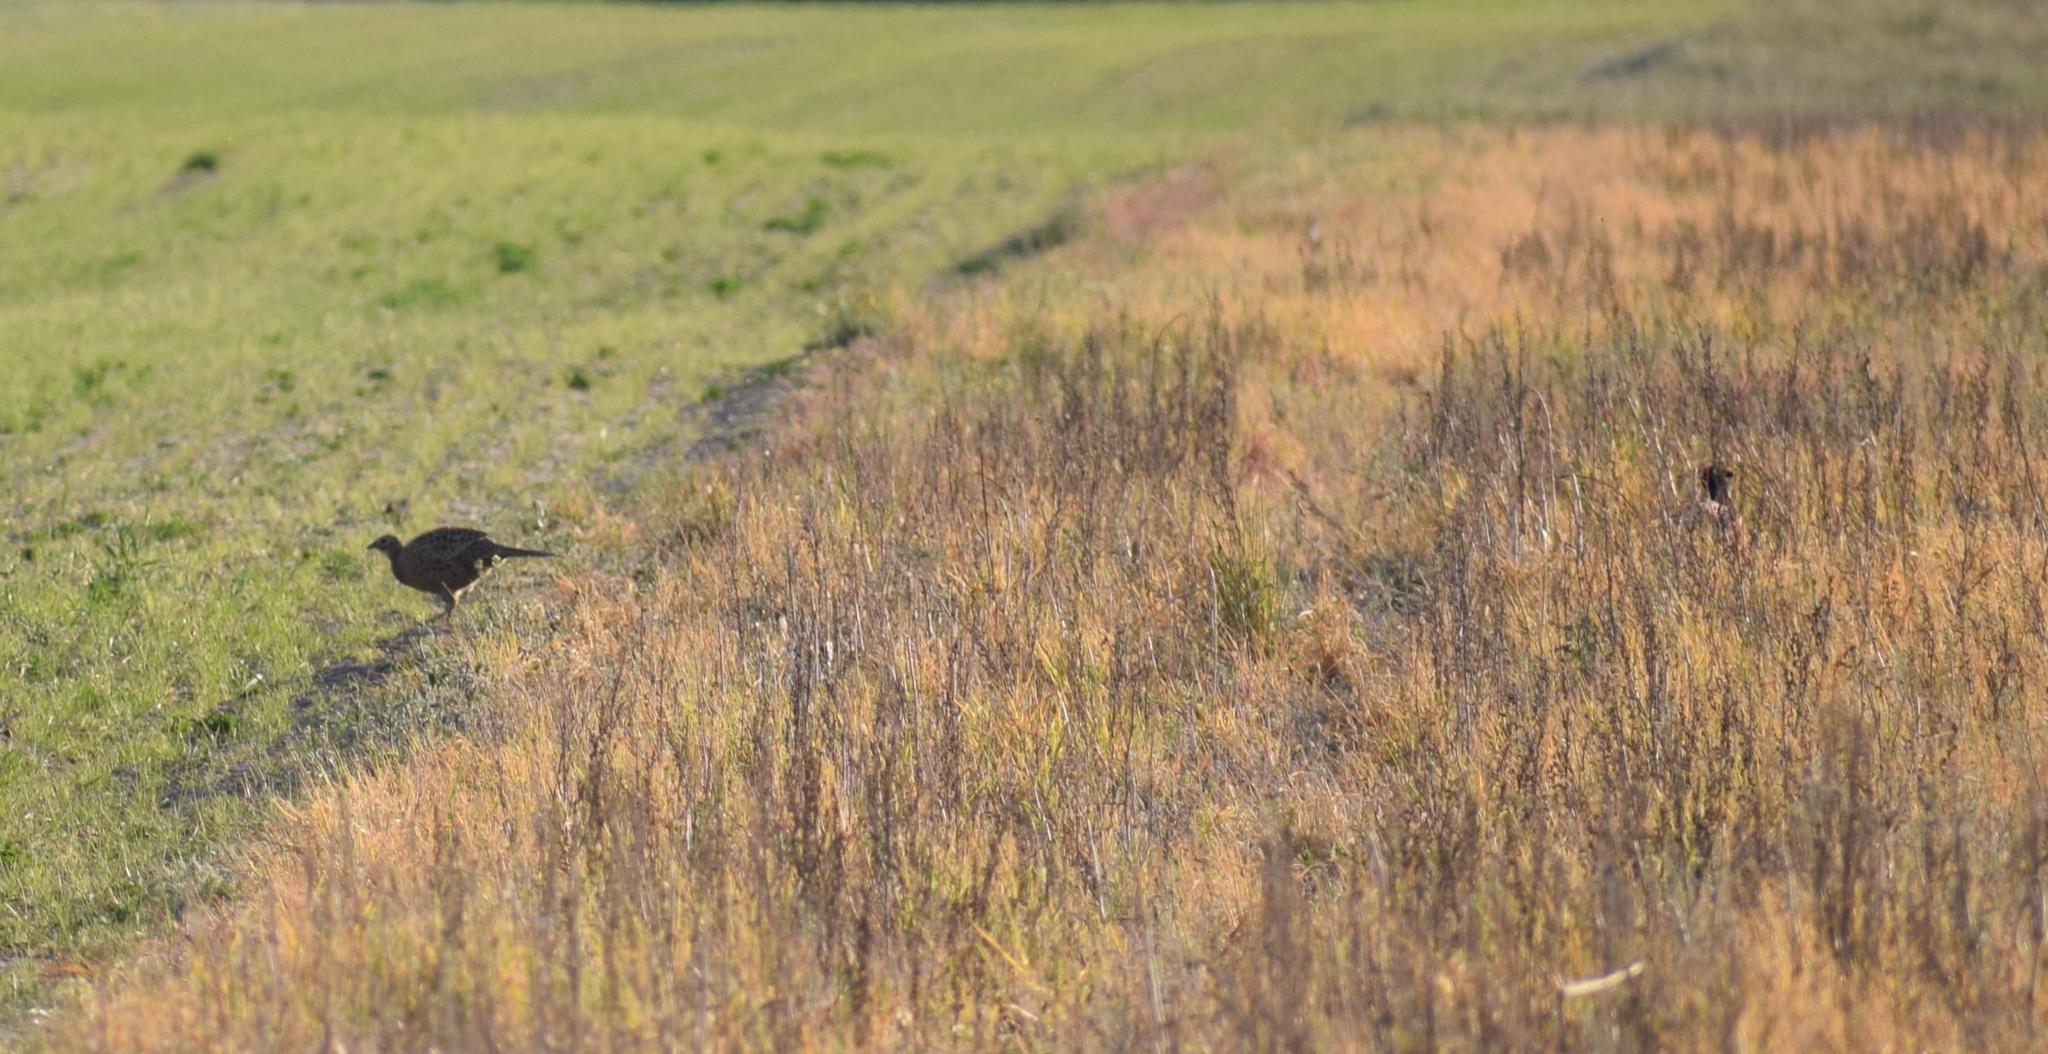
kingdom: Animalia
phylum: Chordata
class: Aves
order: Galliformes
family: Phasianidae
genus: Phasianus
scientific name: Phasianus colchicus
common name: Common pheasant
